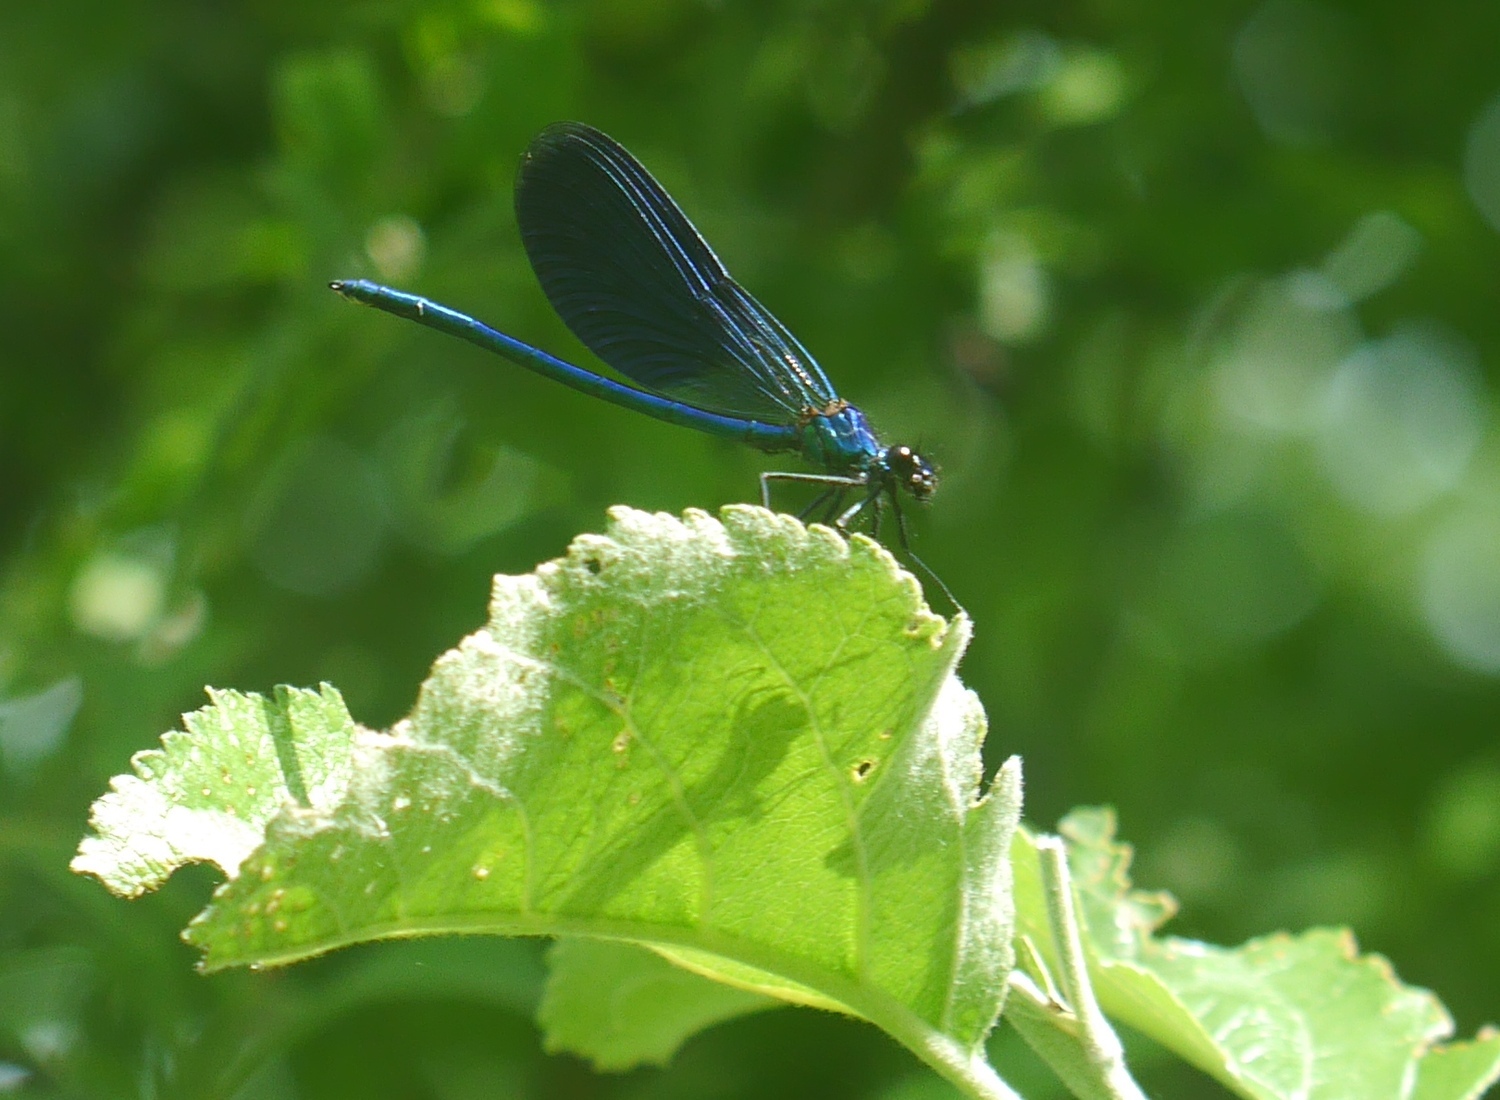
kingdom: Animalia
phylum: Arthropoda
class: Insecta
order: Odonata
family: Calopterygidae
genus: Calopteryx
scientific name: Calopteryx splendens
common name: Banded demoiselle
